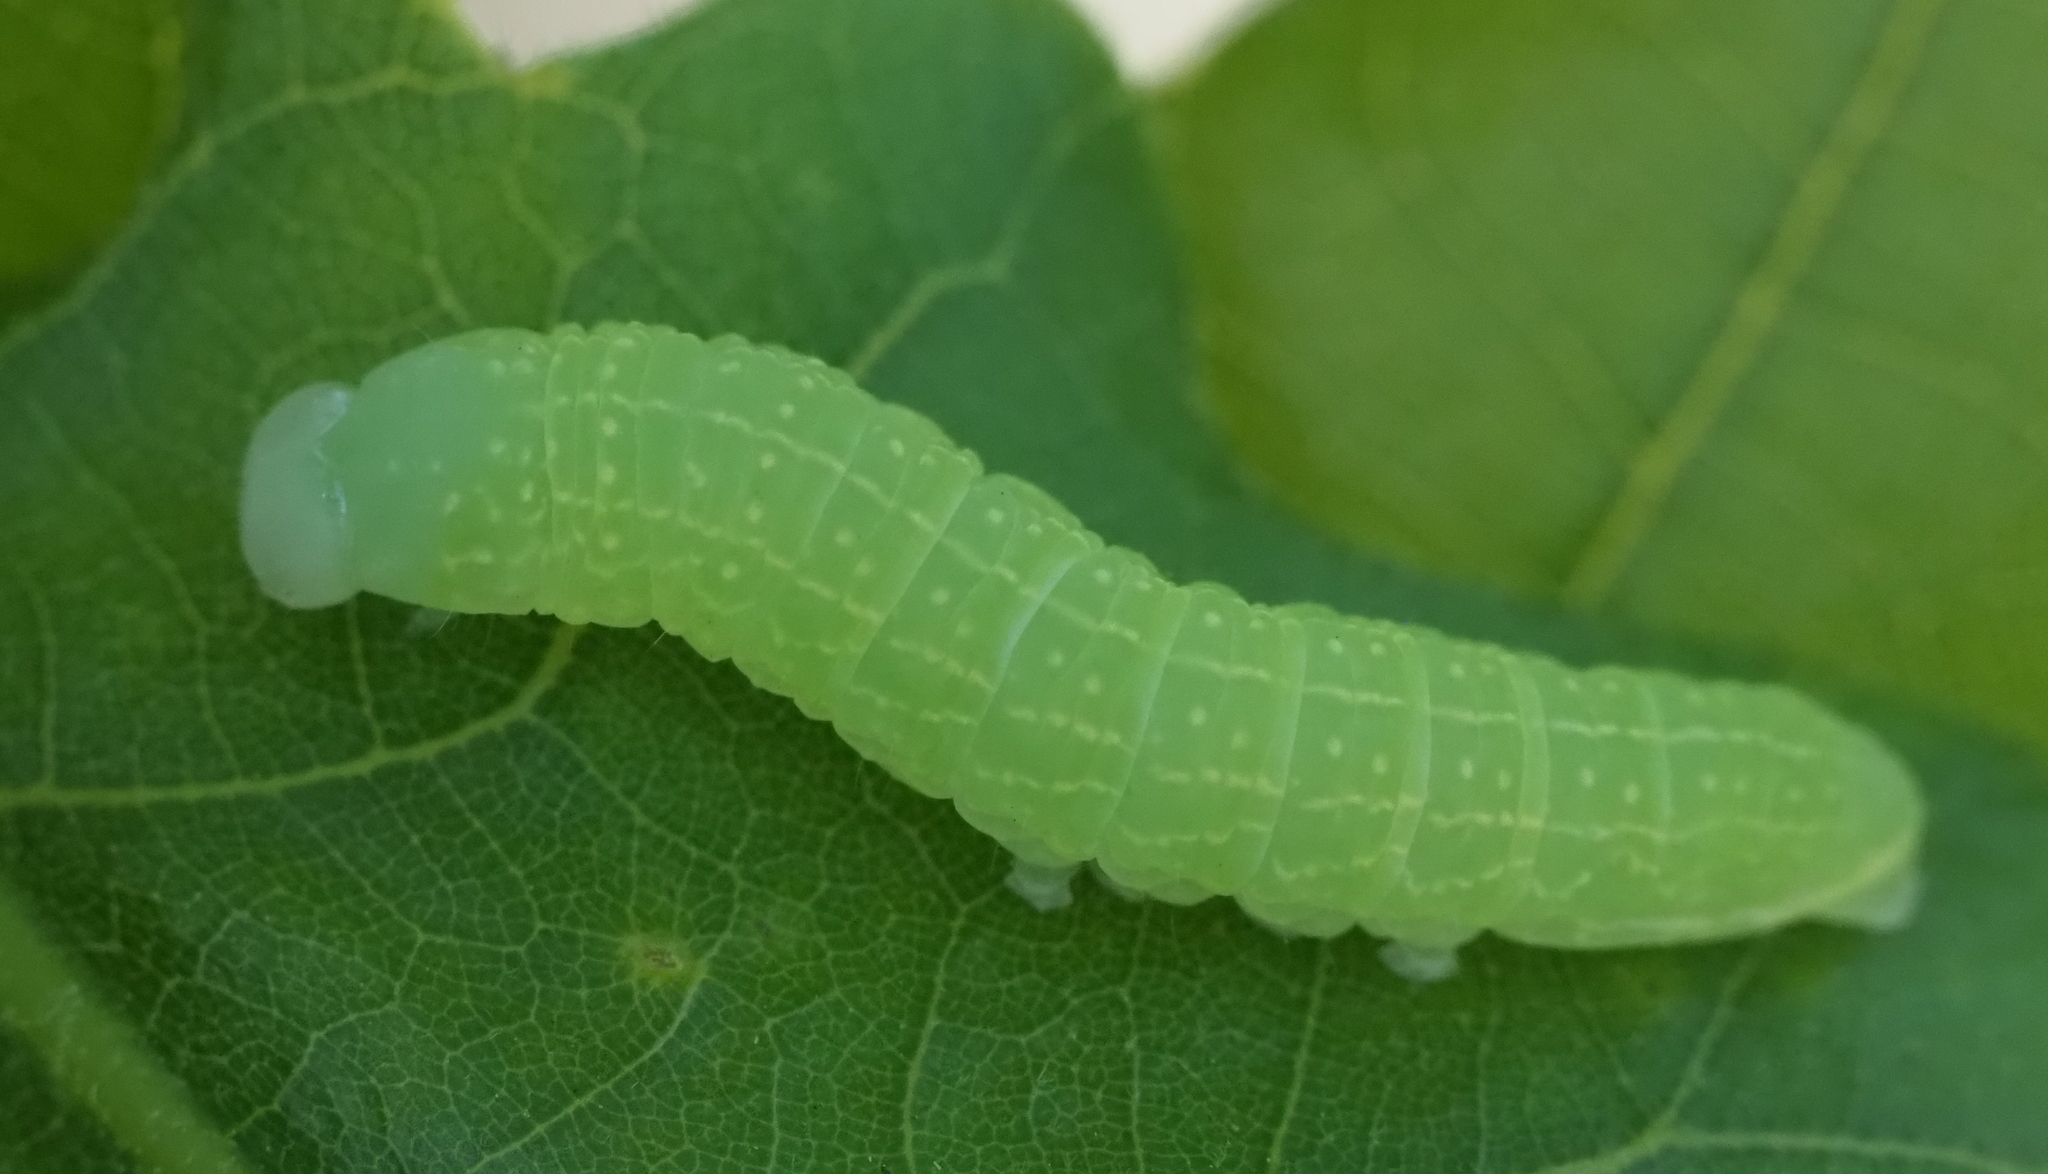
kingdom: Animalia
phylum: Arthropoda
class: Insecta
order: Lepidoptera
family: Noctuidae
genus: Psaphida
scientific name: Psaphida resumens
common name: Figure-eight sallow
